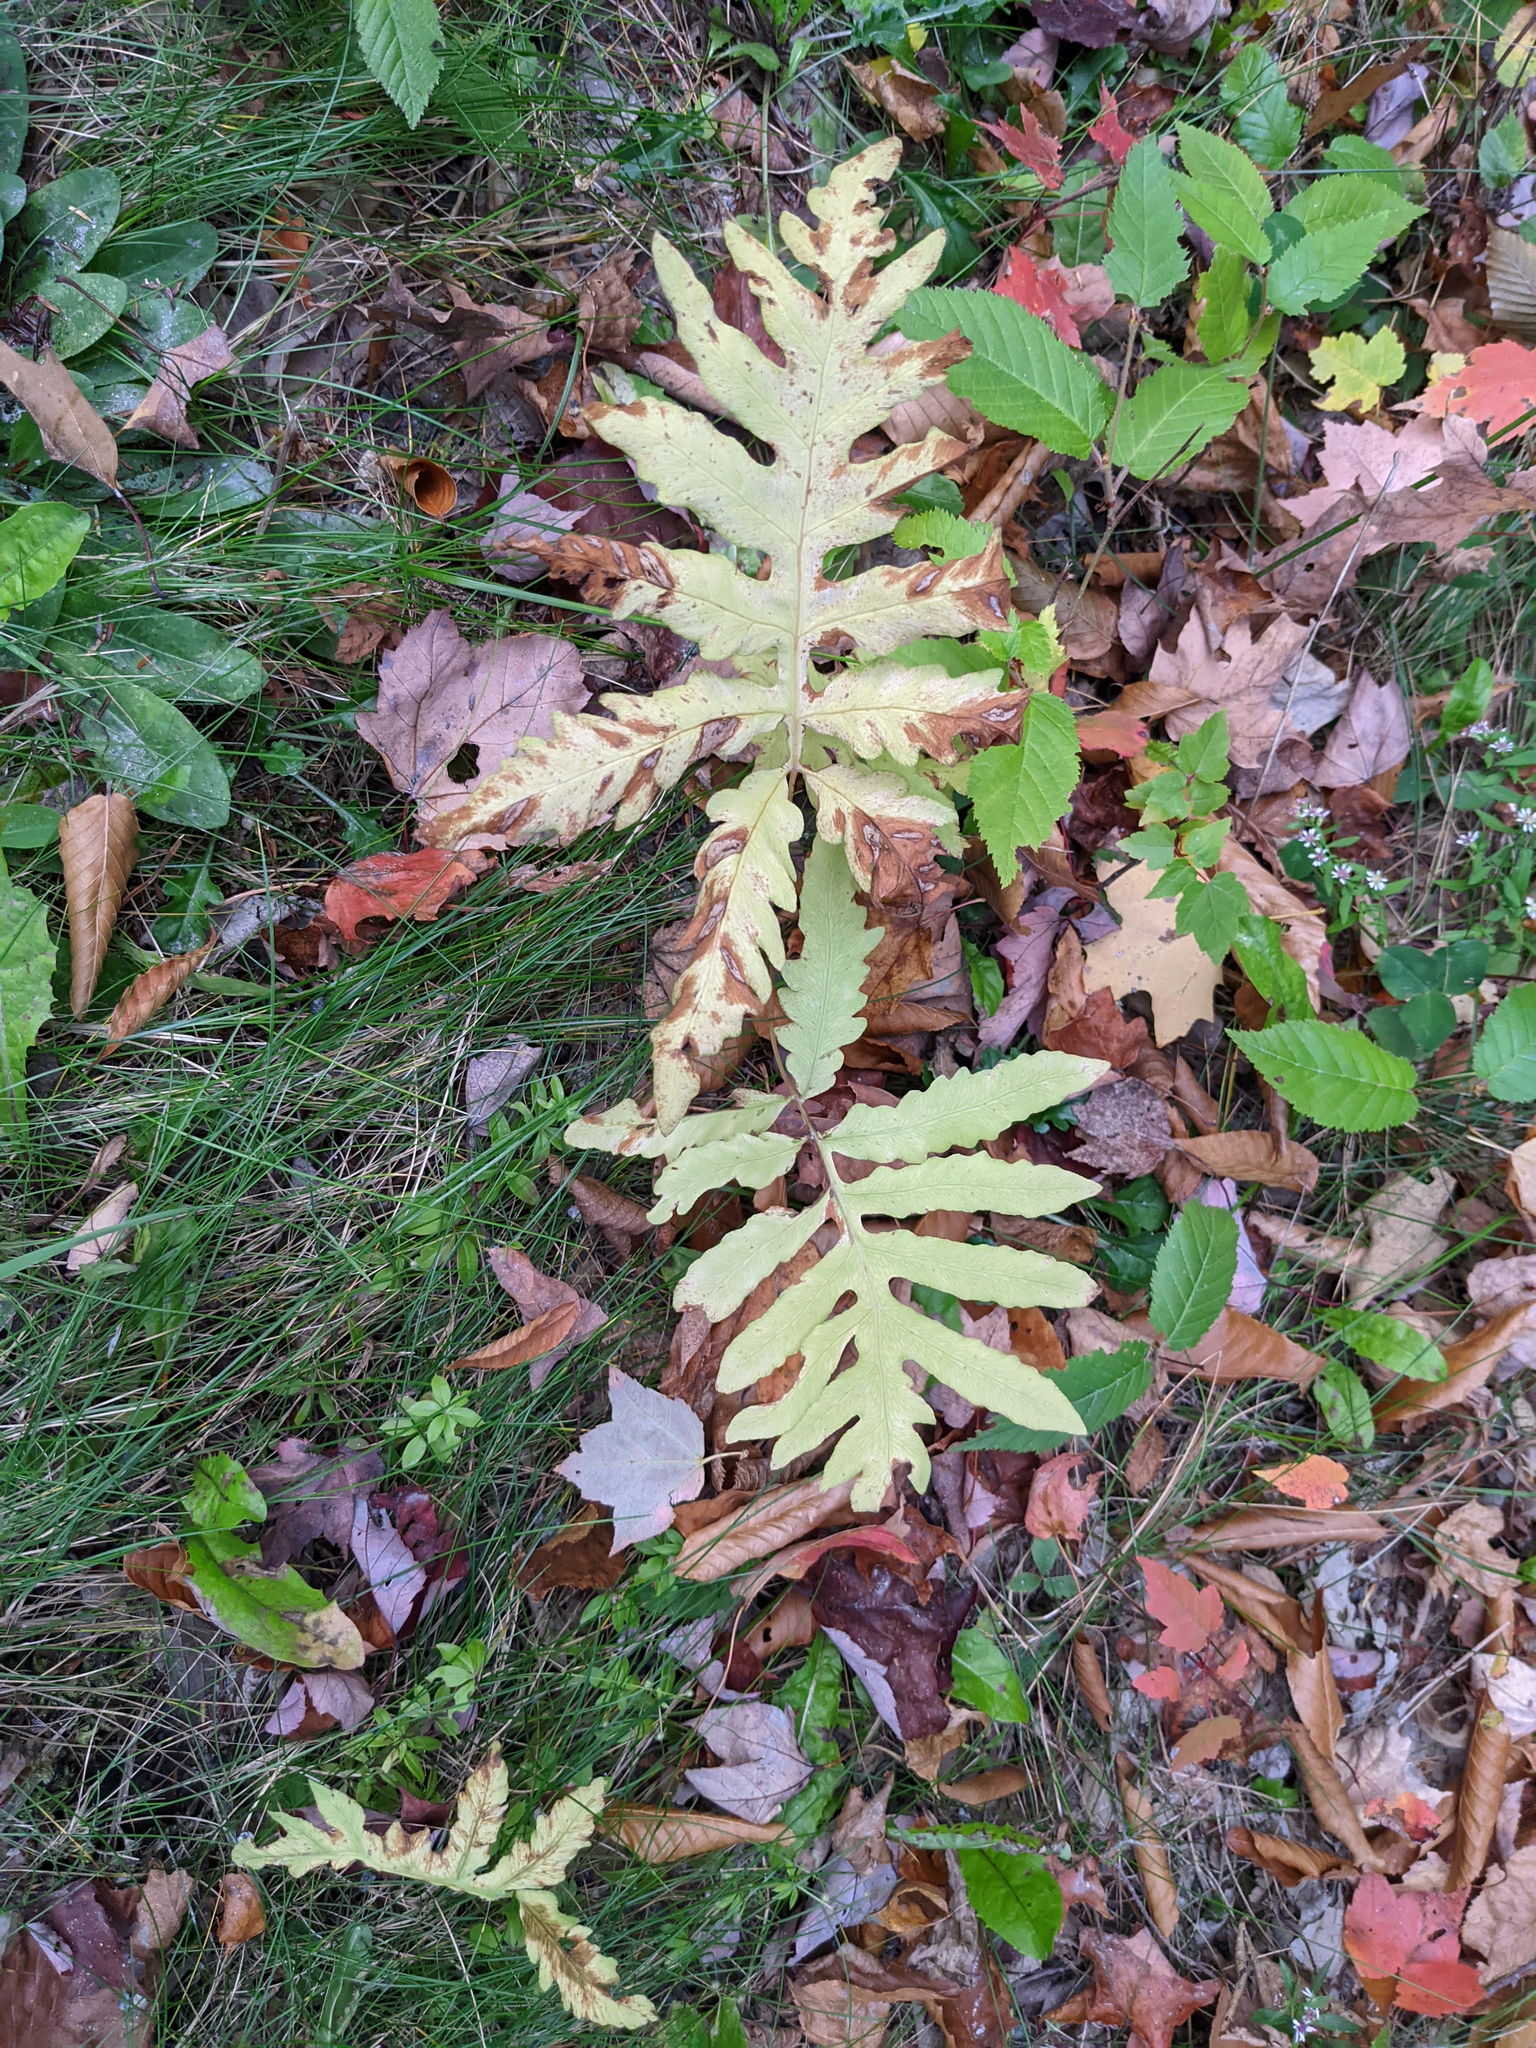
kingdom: Plantae
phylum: Tracheophyta
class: Polypodiopsida
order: Polypodiales
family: Onocleaceae
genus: Onoclea
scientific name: Onoclea sensibilis
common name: Sensitive fern
